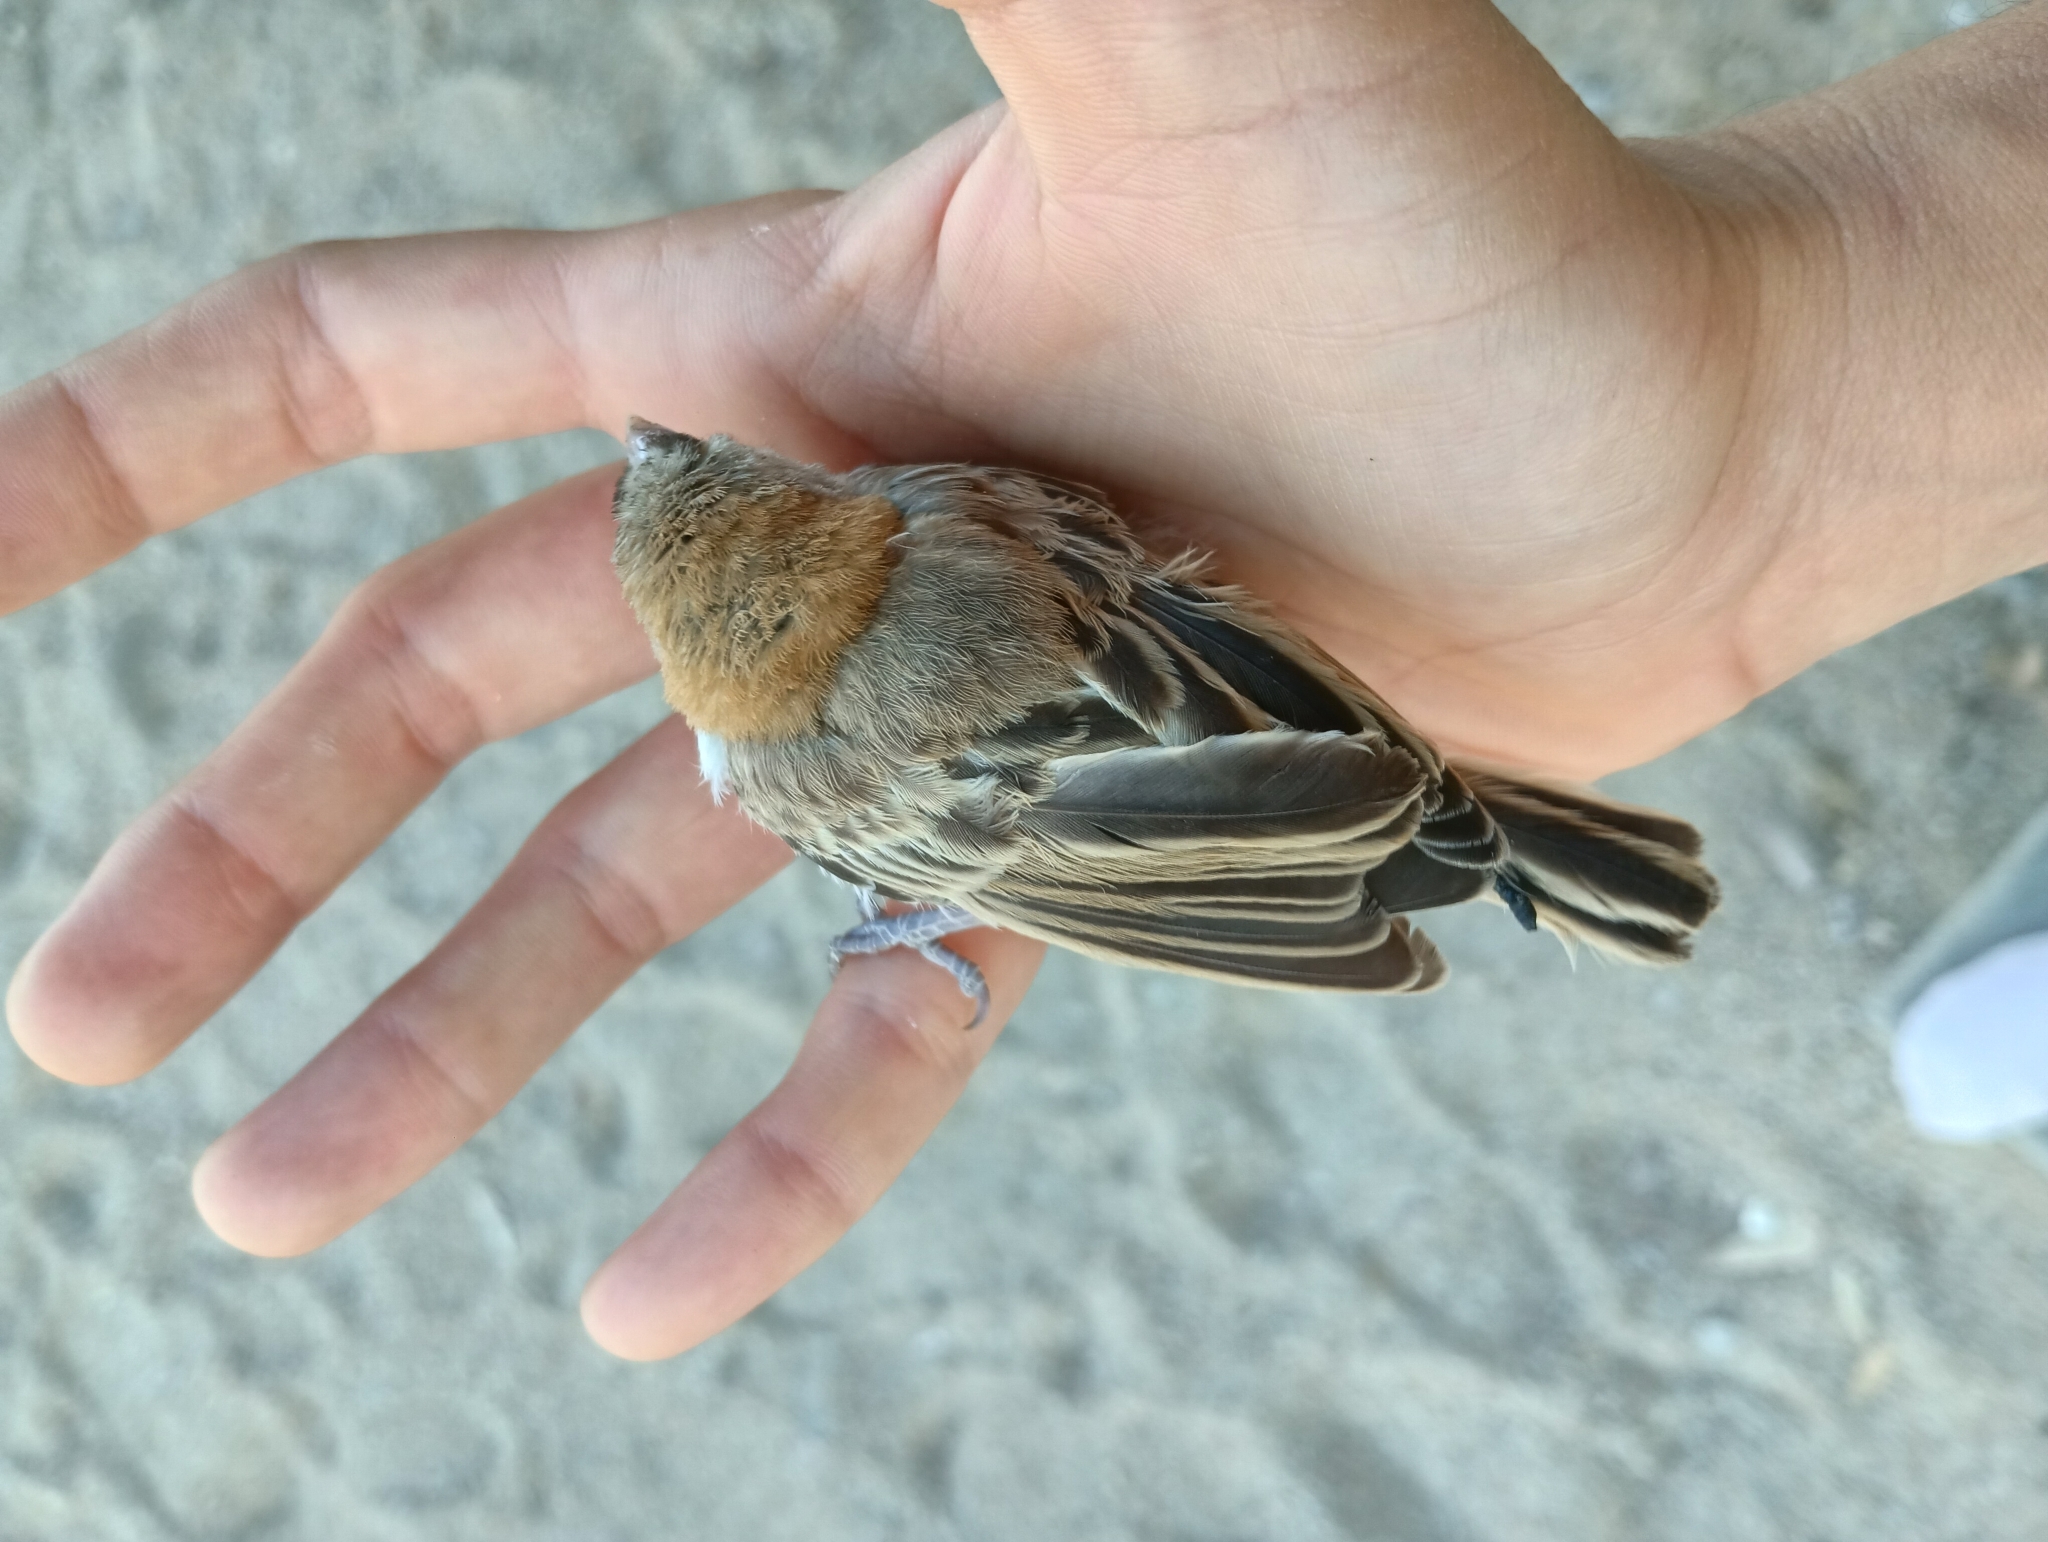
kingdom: Animalia
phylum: Chordata
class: Aves
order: Passeriformes
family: Ploceidae
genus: Sporopipes
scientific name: Sporopipes frontalis
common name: Speckle-fronted weaver
